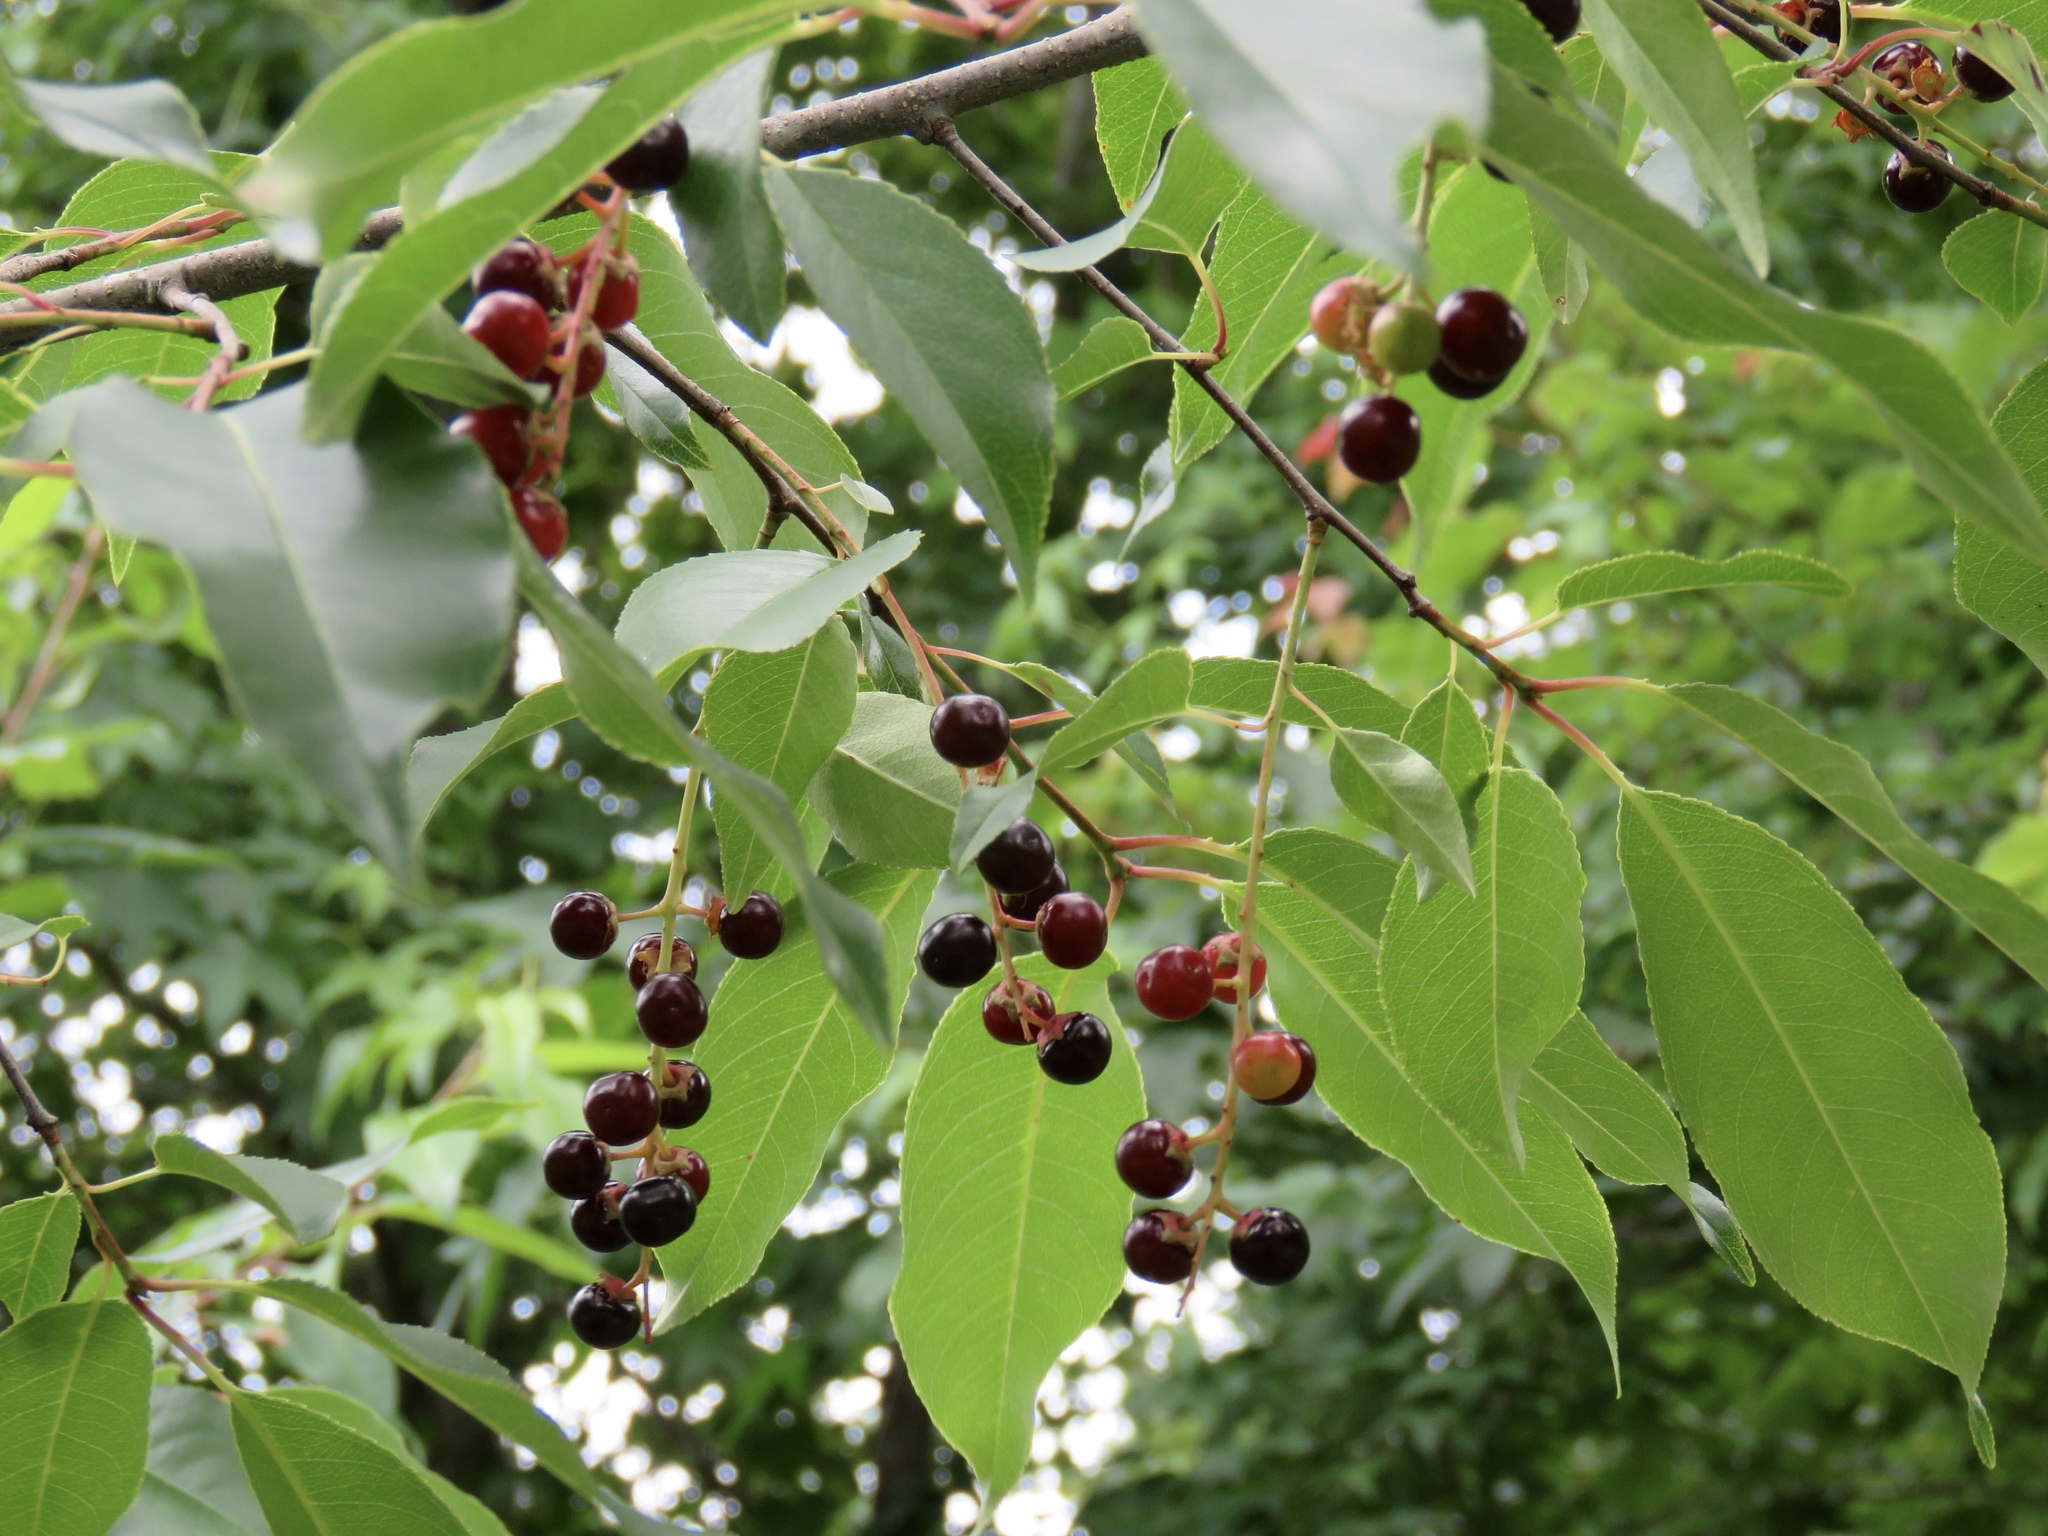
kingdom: Plantae
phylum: Tracheophyta
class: Magnoliopsida
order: Rosales
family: Rosaceae
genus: Prunus
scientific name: Prunus serotina
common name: Black cherry
